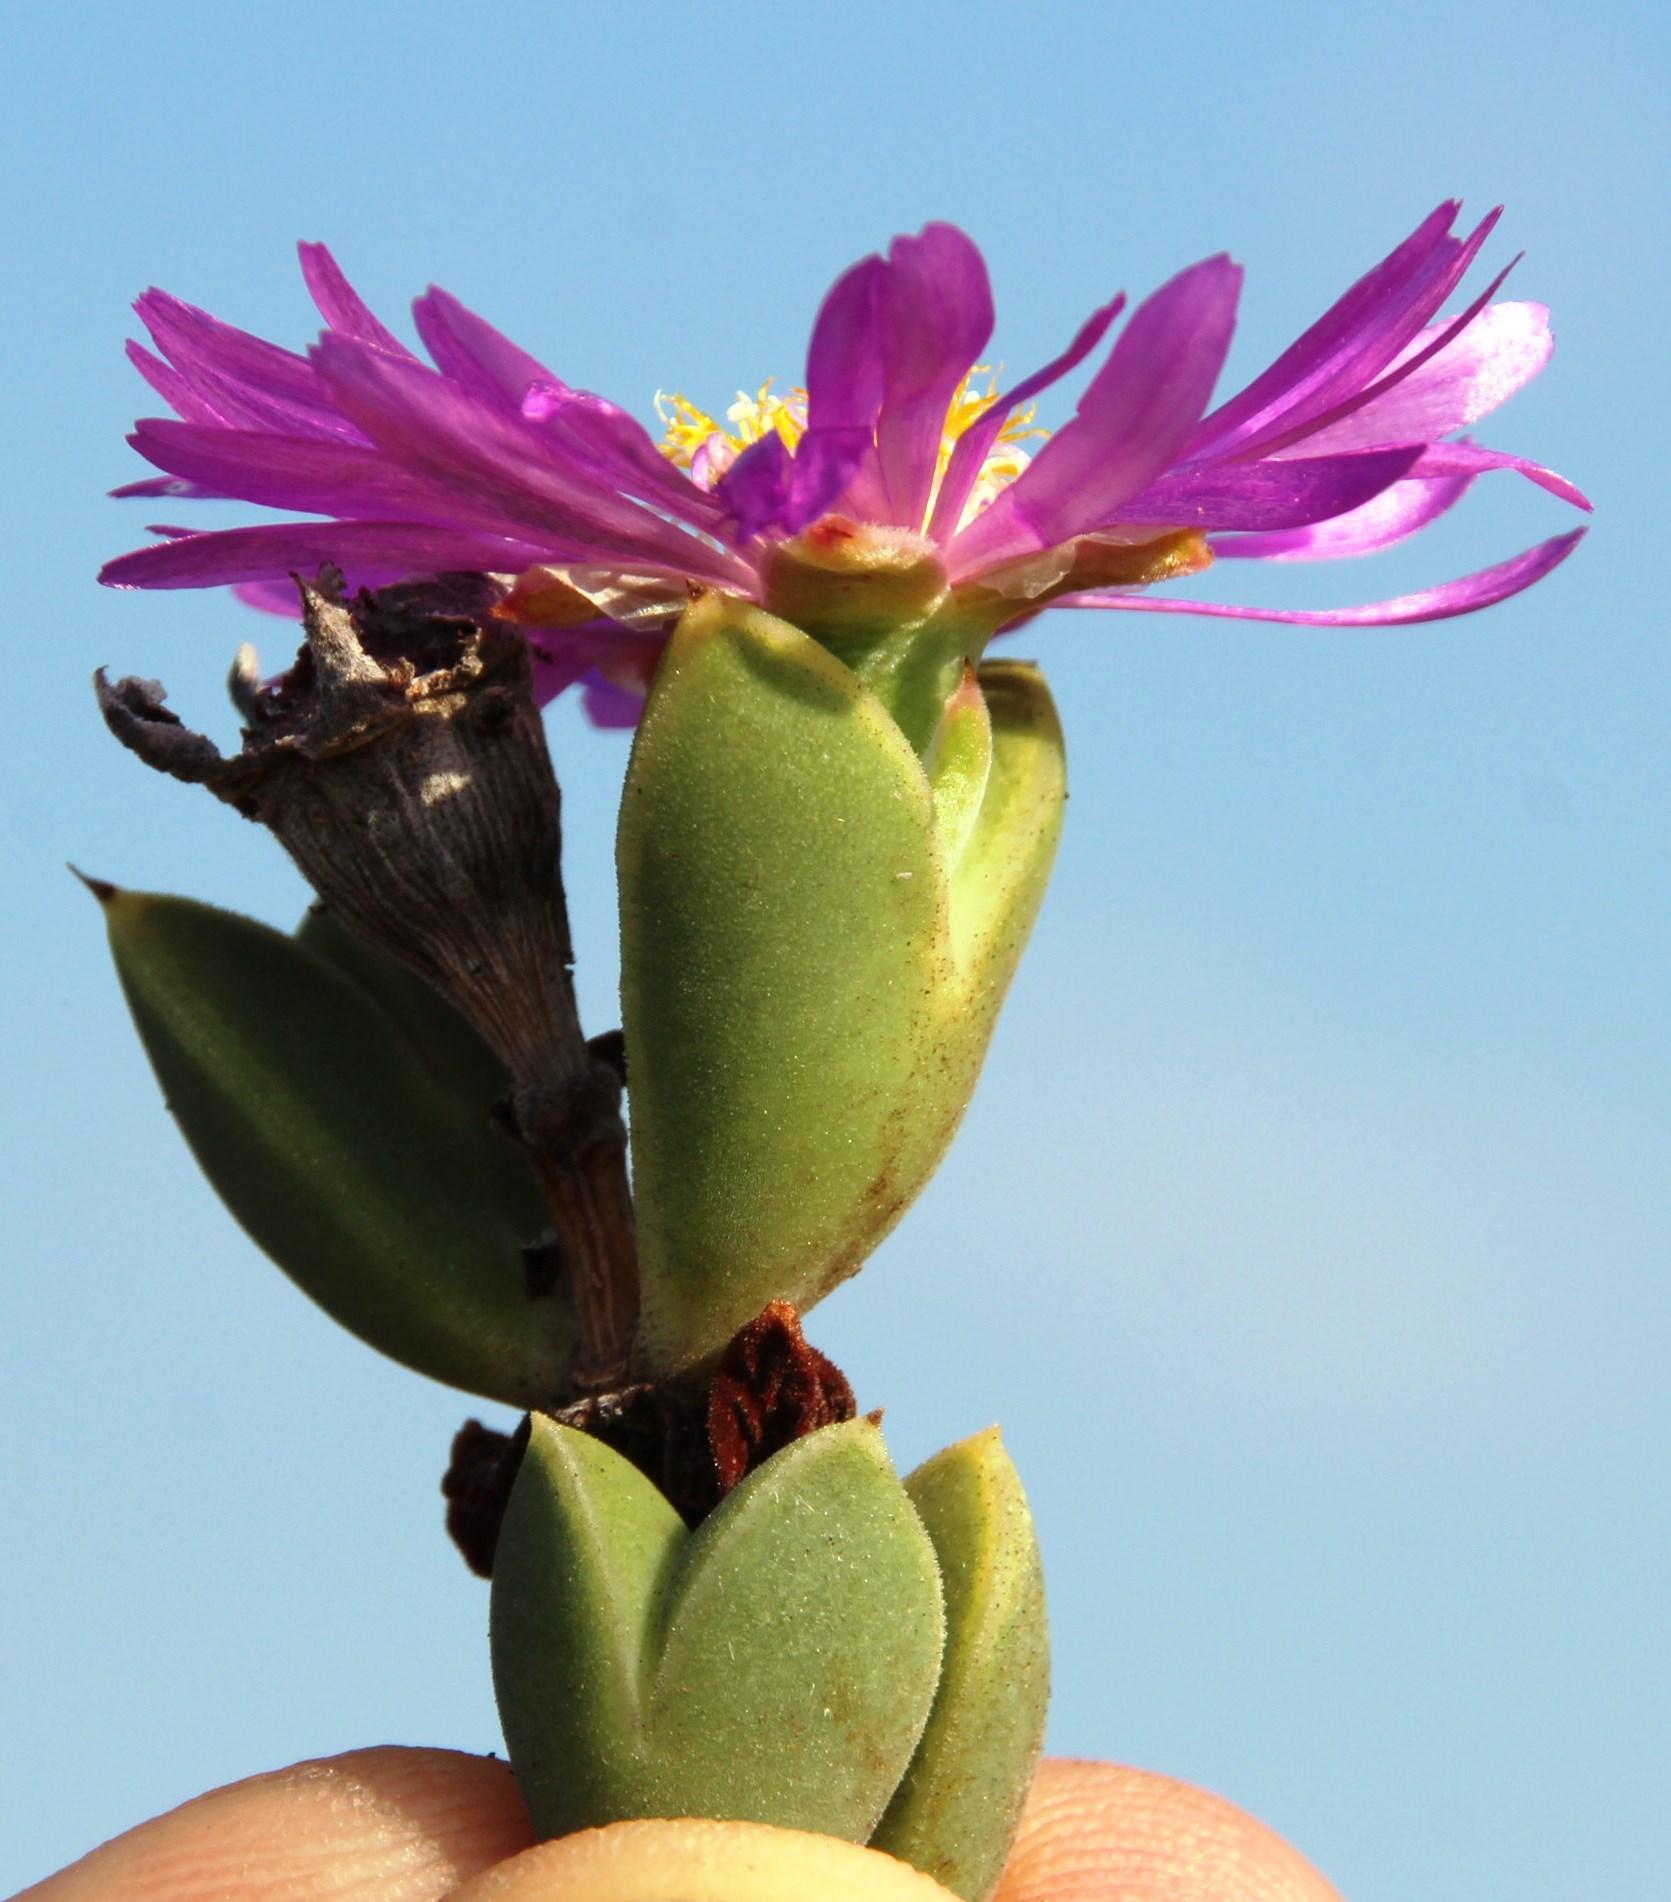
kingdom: Plantae
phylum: Tracheophyta
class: Magnoliopsida
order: Caryophyllales
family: Aizoaceae
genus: Braunsia
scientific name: Braunsia apiculata
